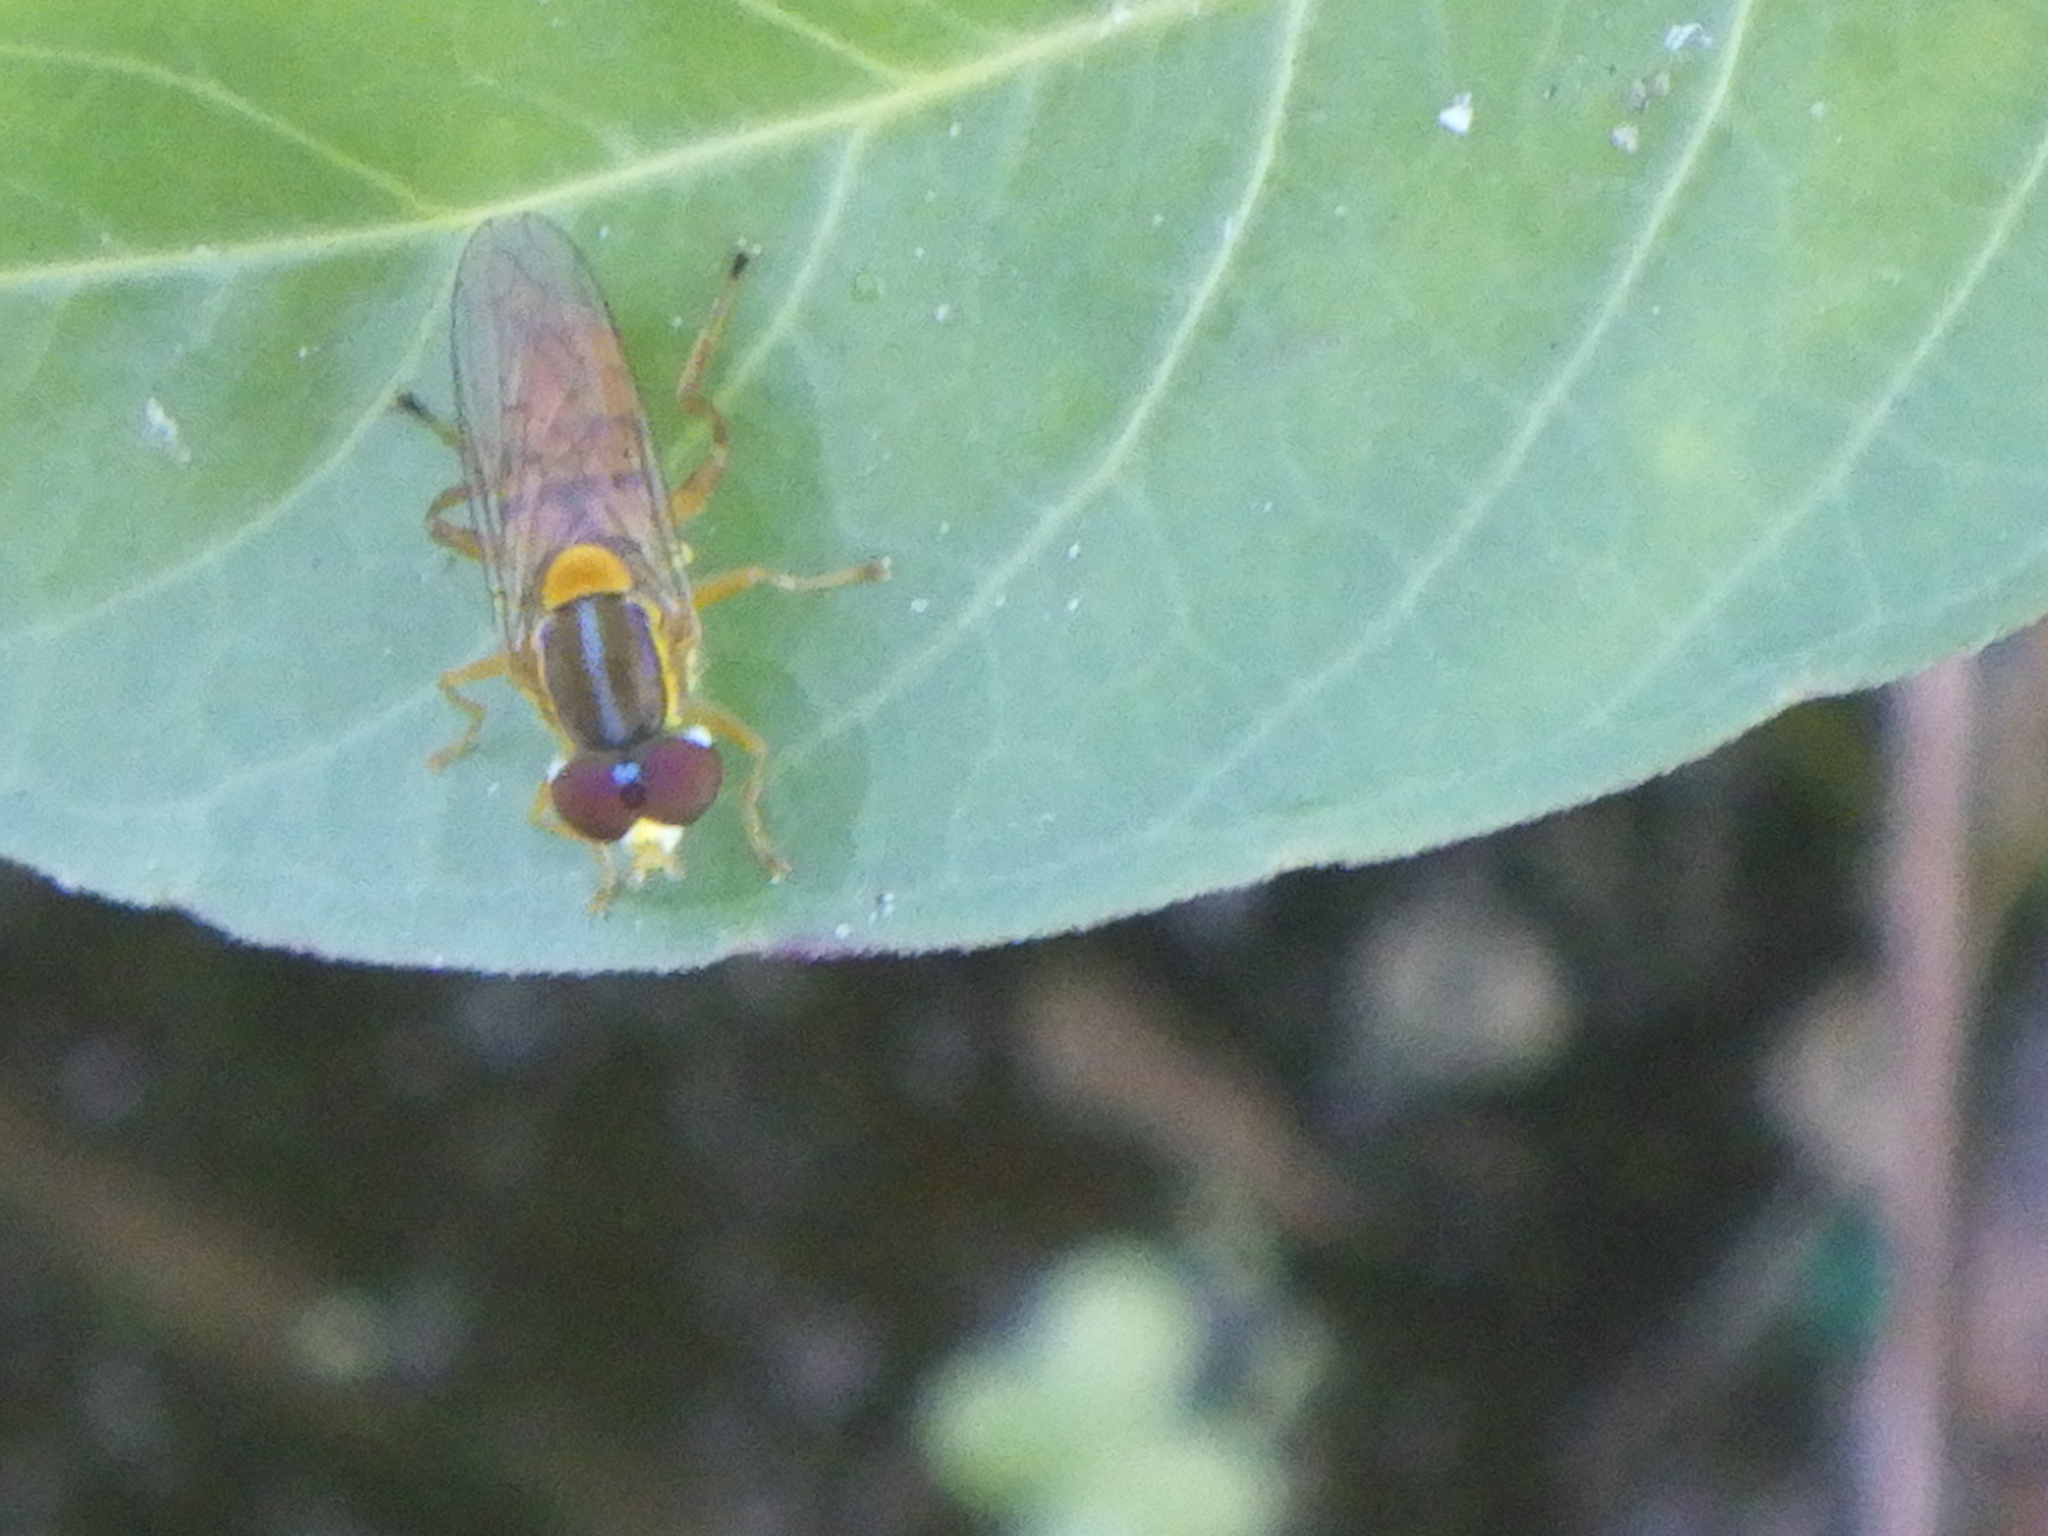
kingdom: Animalia
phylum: Arthropoda
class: Insecta
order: Diptera
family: Syrphidae
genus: Toxomerus
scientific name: Toxomerus jussiaeae
